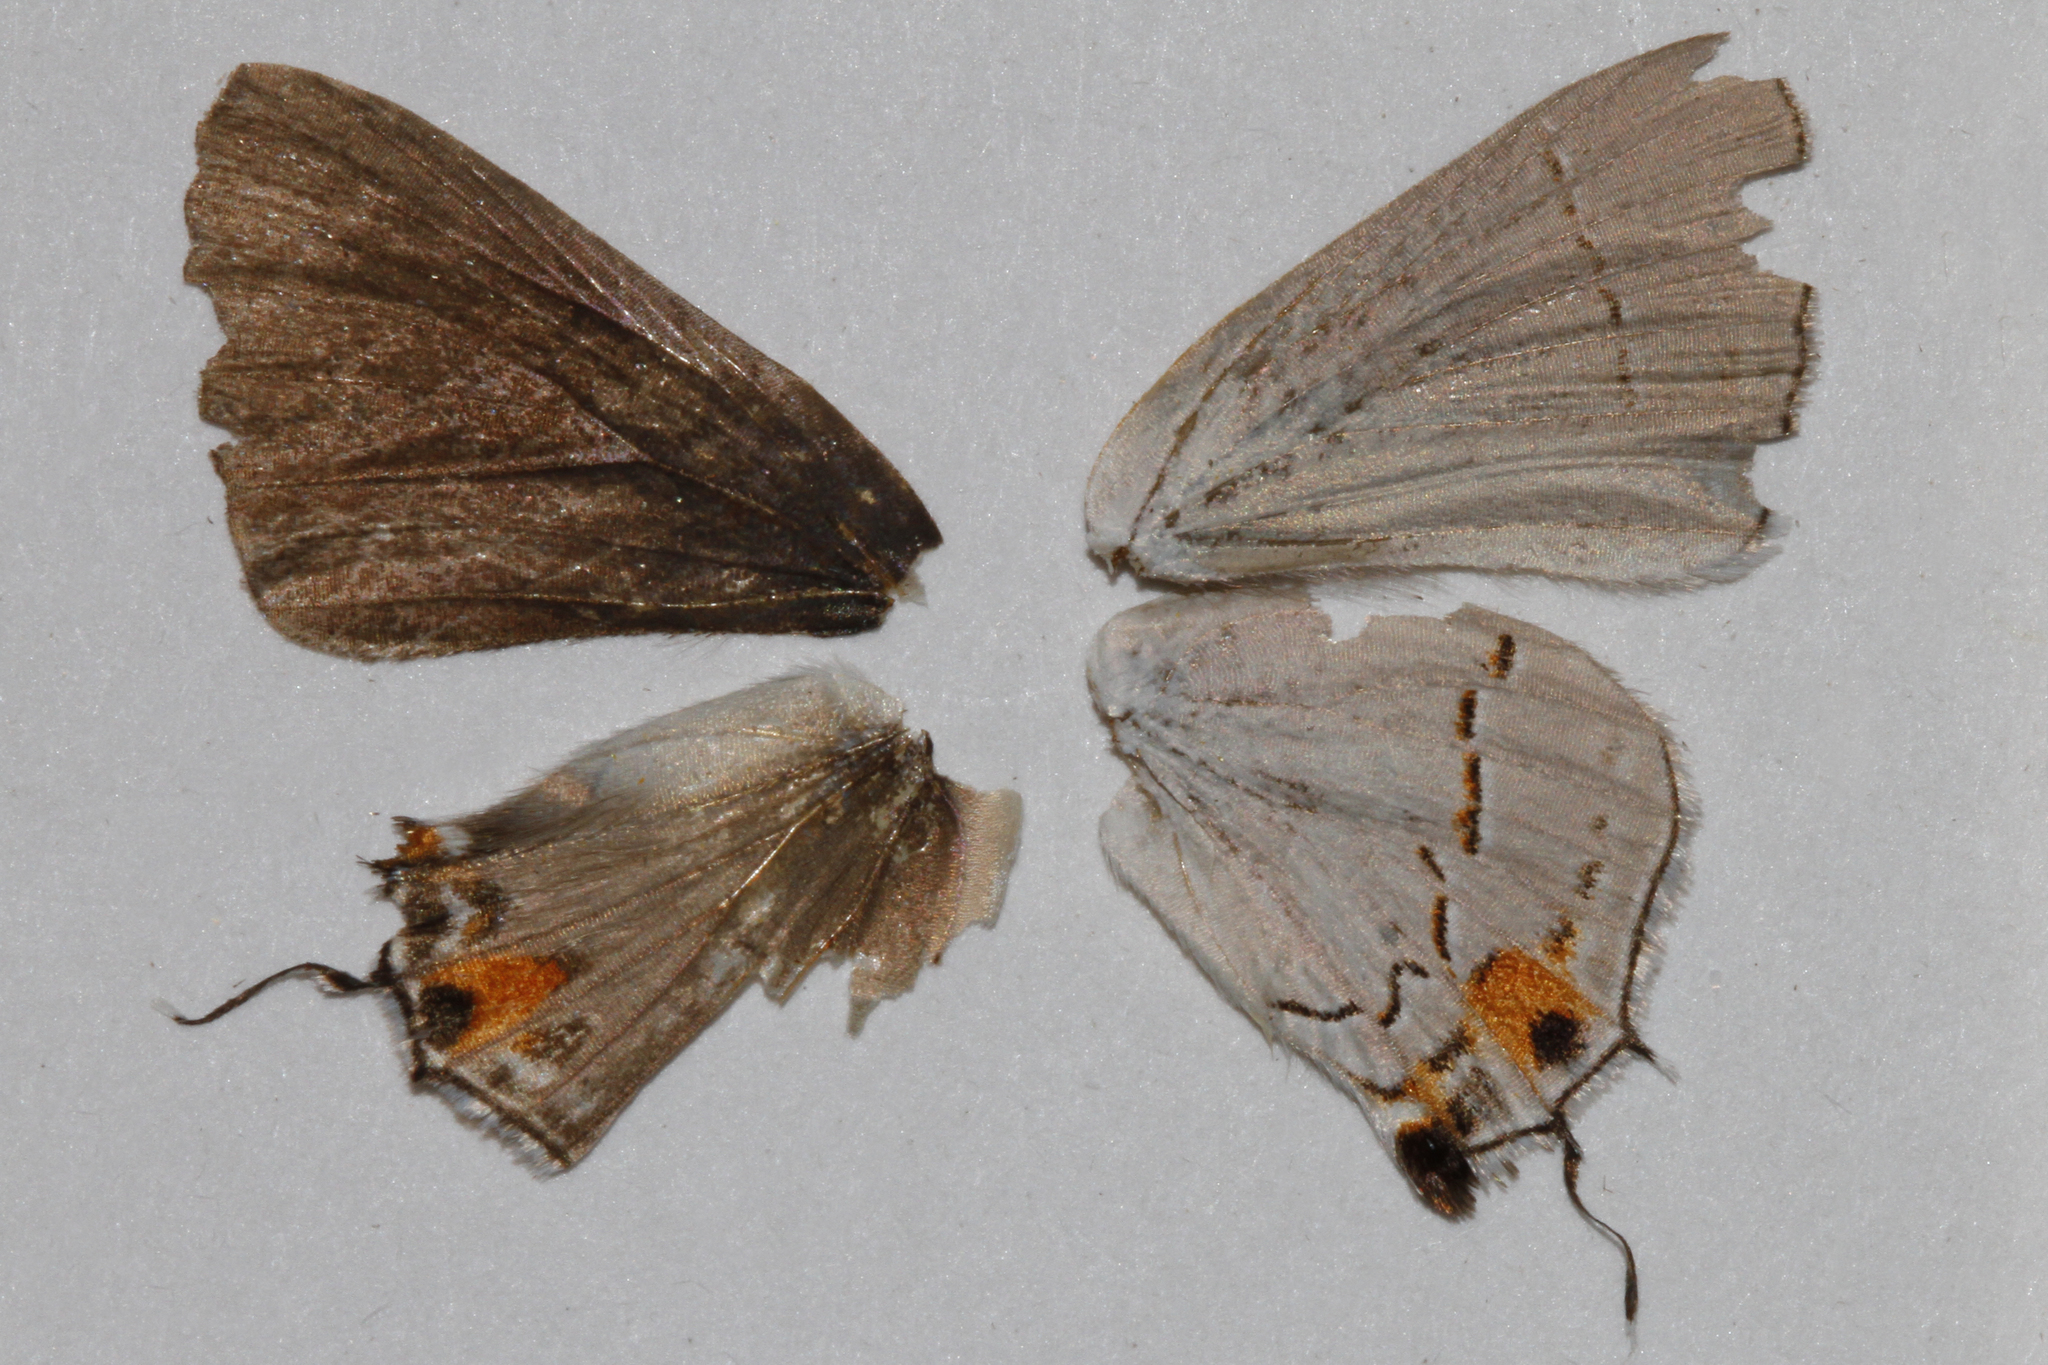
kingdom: Animalia
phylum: Arthropoda
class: Insecta
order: Lepidoptera
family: Lycaenidae
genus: Strymon
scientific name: Strymon melinus
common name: Gray hairstreak
